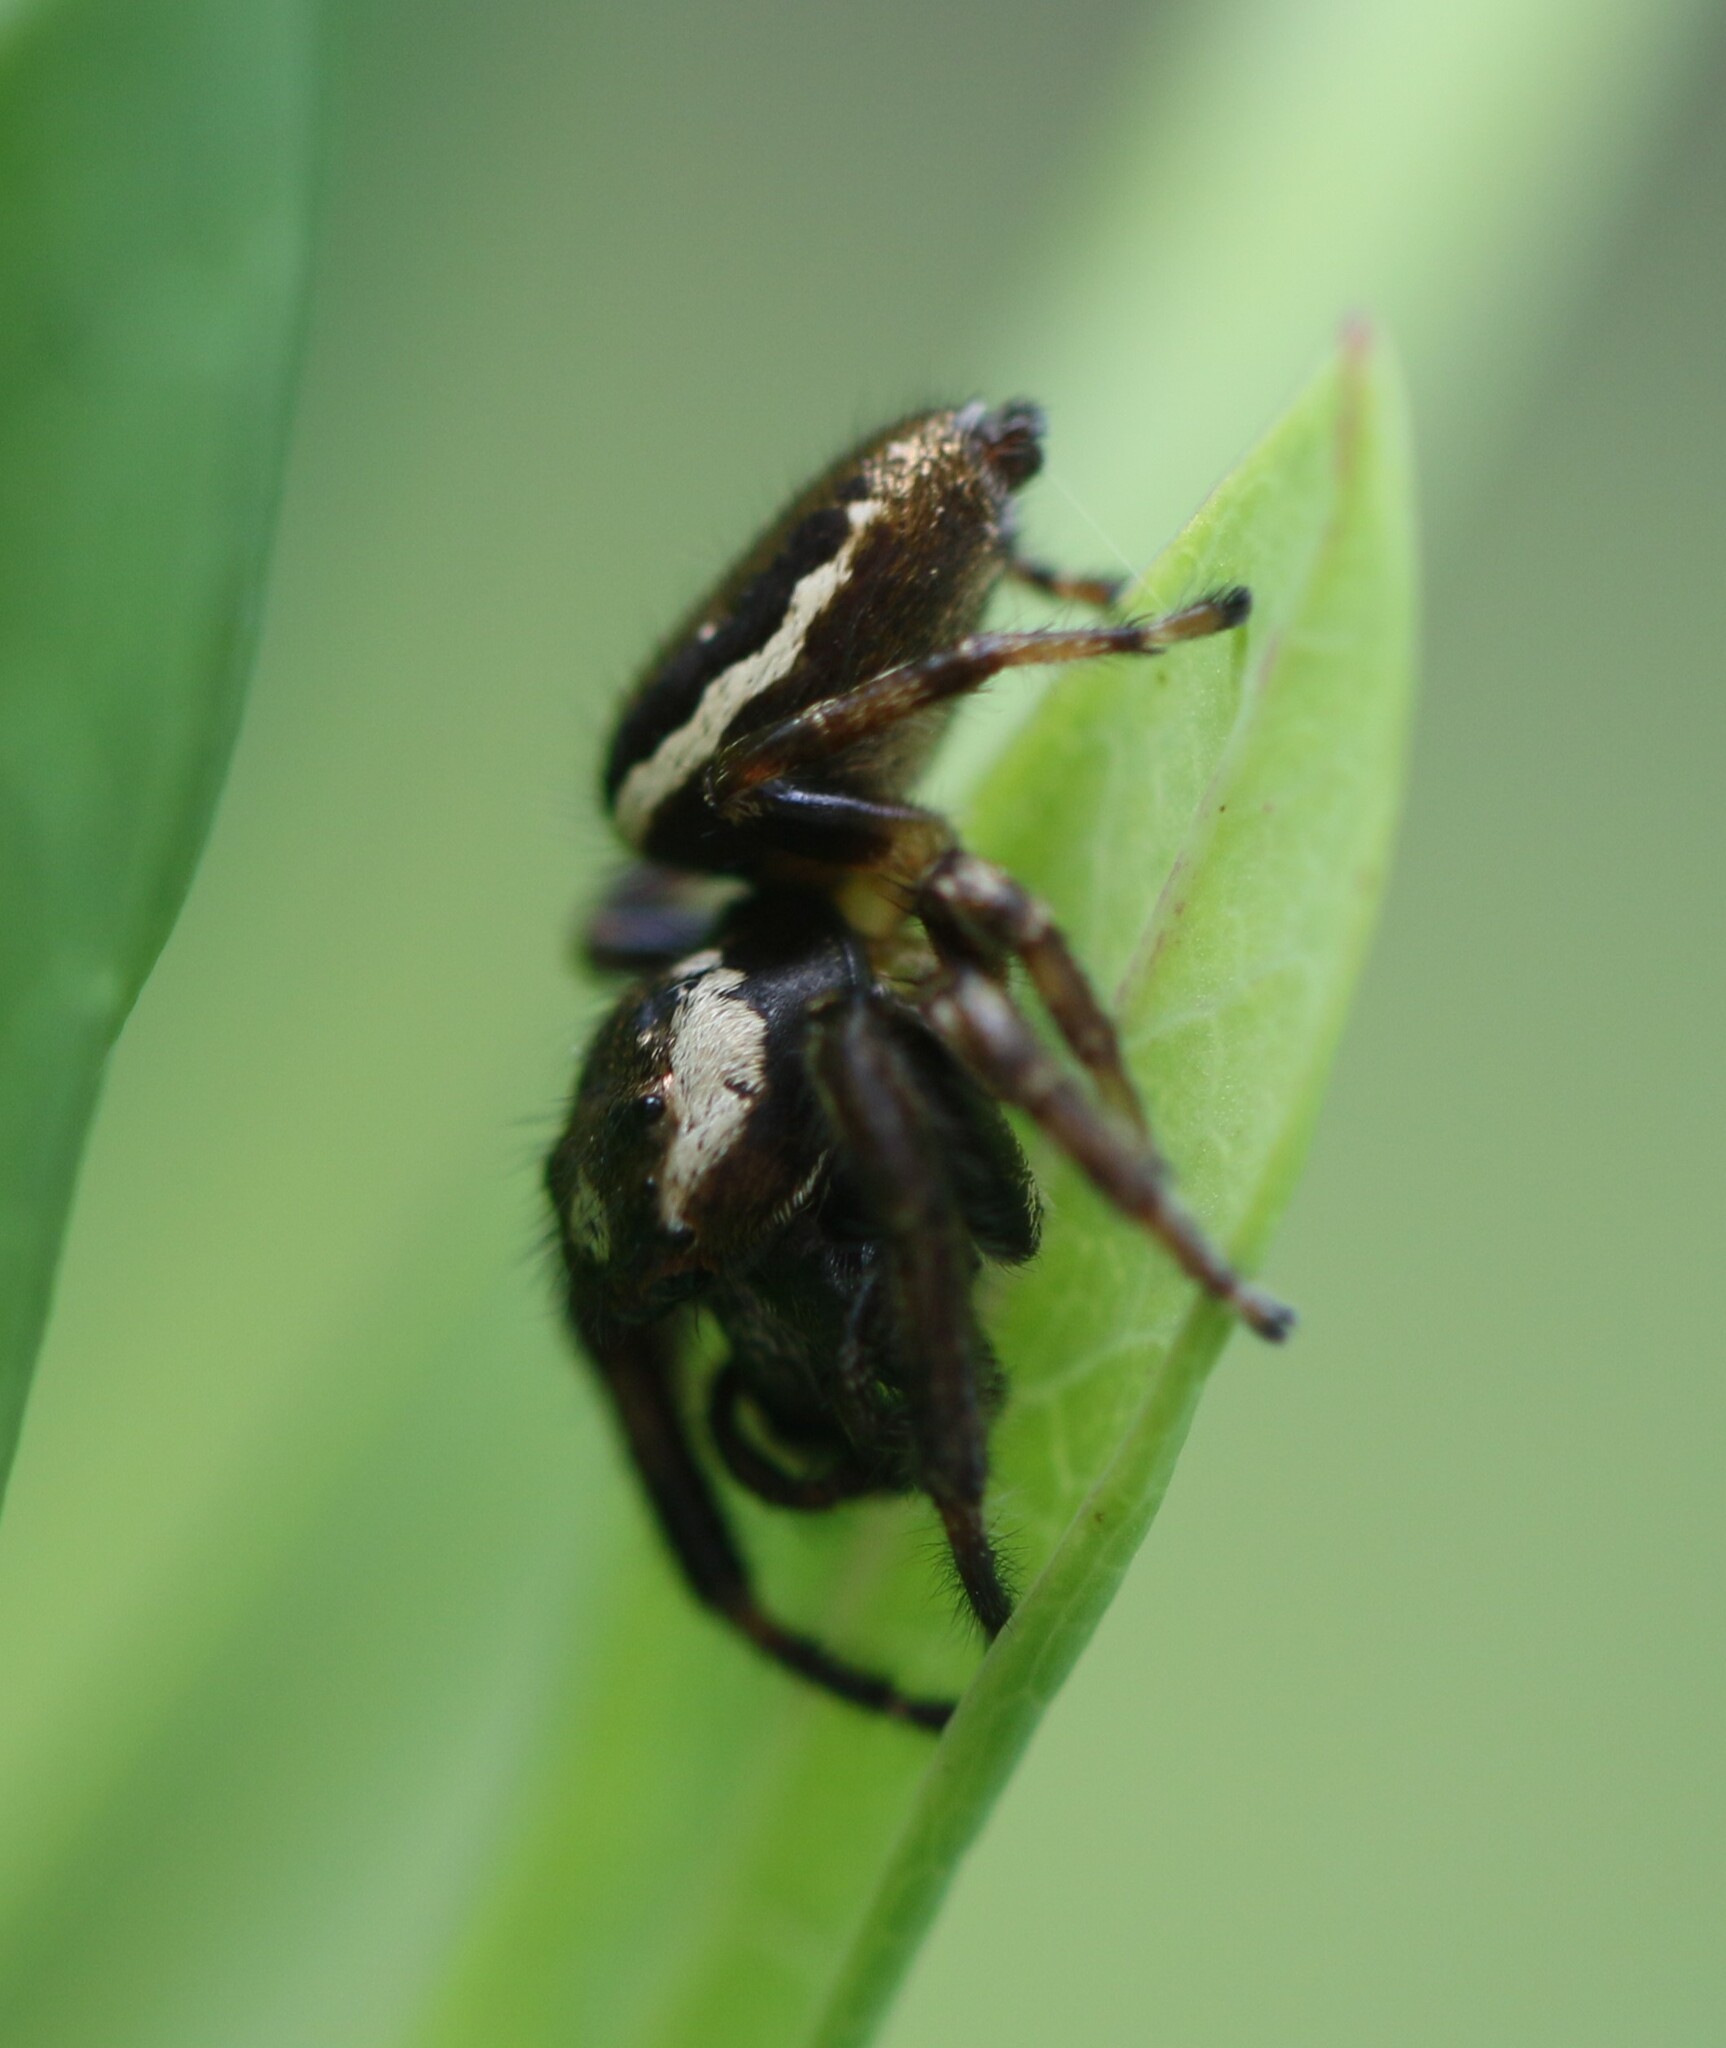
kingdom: Animalia
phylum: Arthropoda
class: Arachnida
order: Araneae
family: Salticidae
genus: Eris
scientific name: Eris militaris
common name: Bronze jumper
